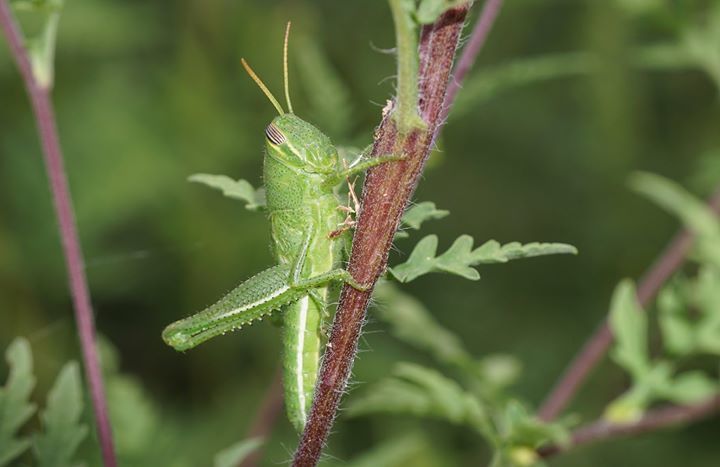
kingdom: Animalia
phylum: Arthropoda
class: Insecta
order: Orthoptera
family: Acrididae
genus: Schistocerca
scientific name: Schistocerca serialis
